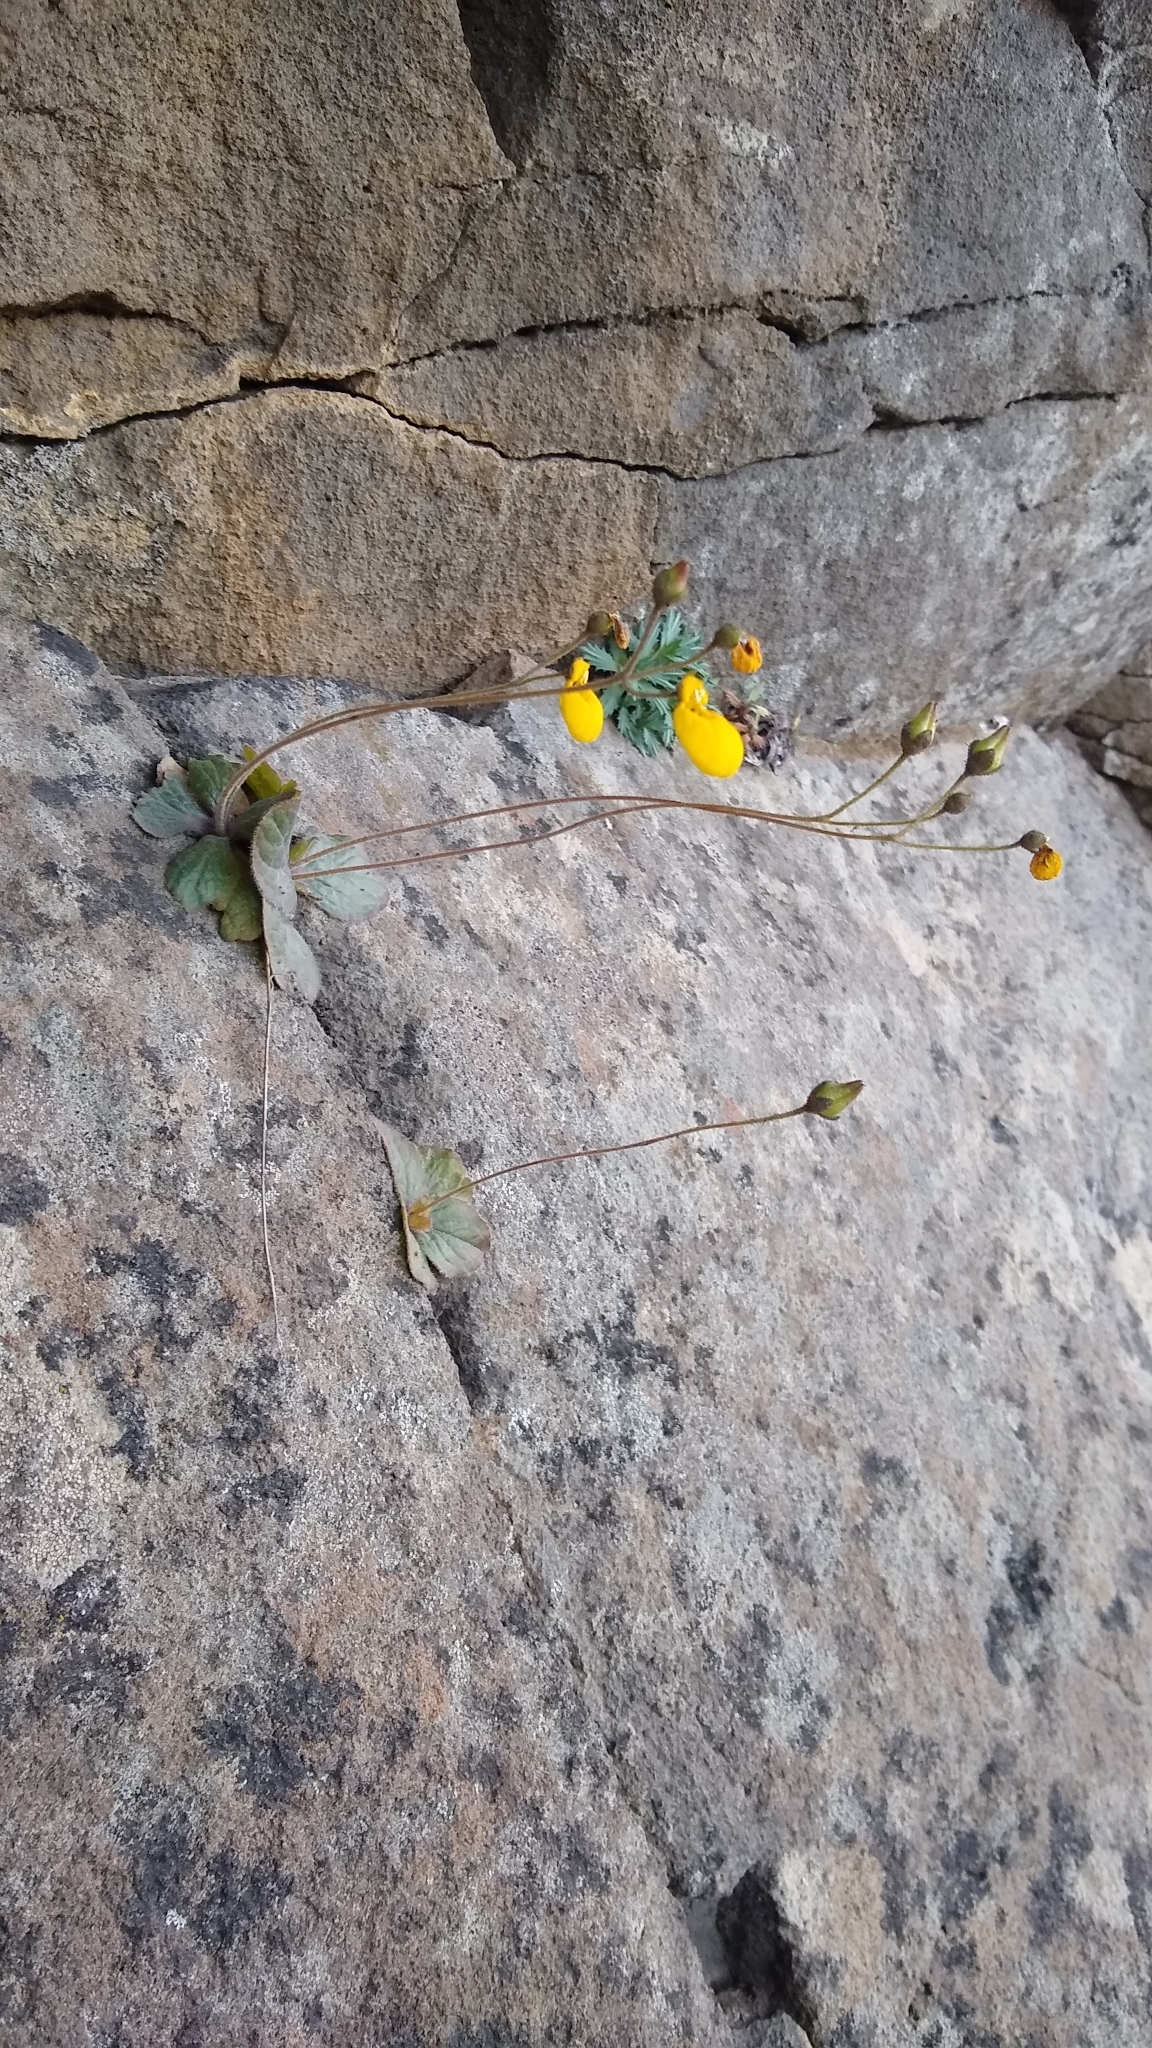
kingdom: Plantae
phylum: Tracheophyta
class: Magnoliopsida
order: Lamiales
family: Calceolariaceae
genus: Calceolaria
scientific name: Calceolaria biflora
